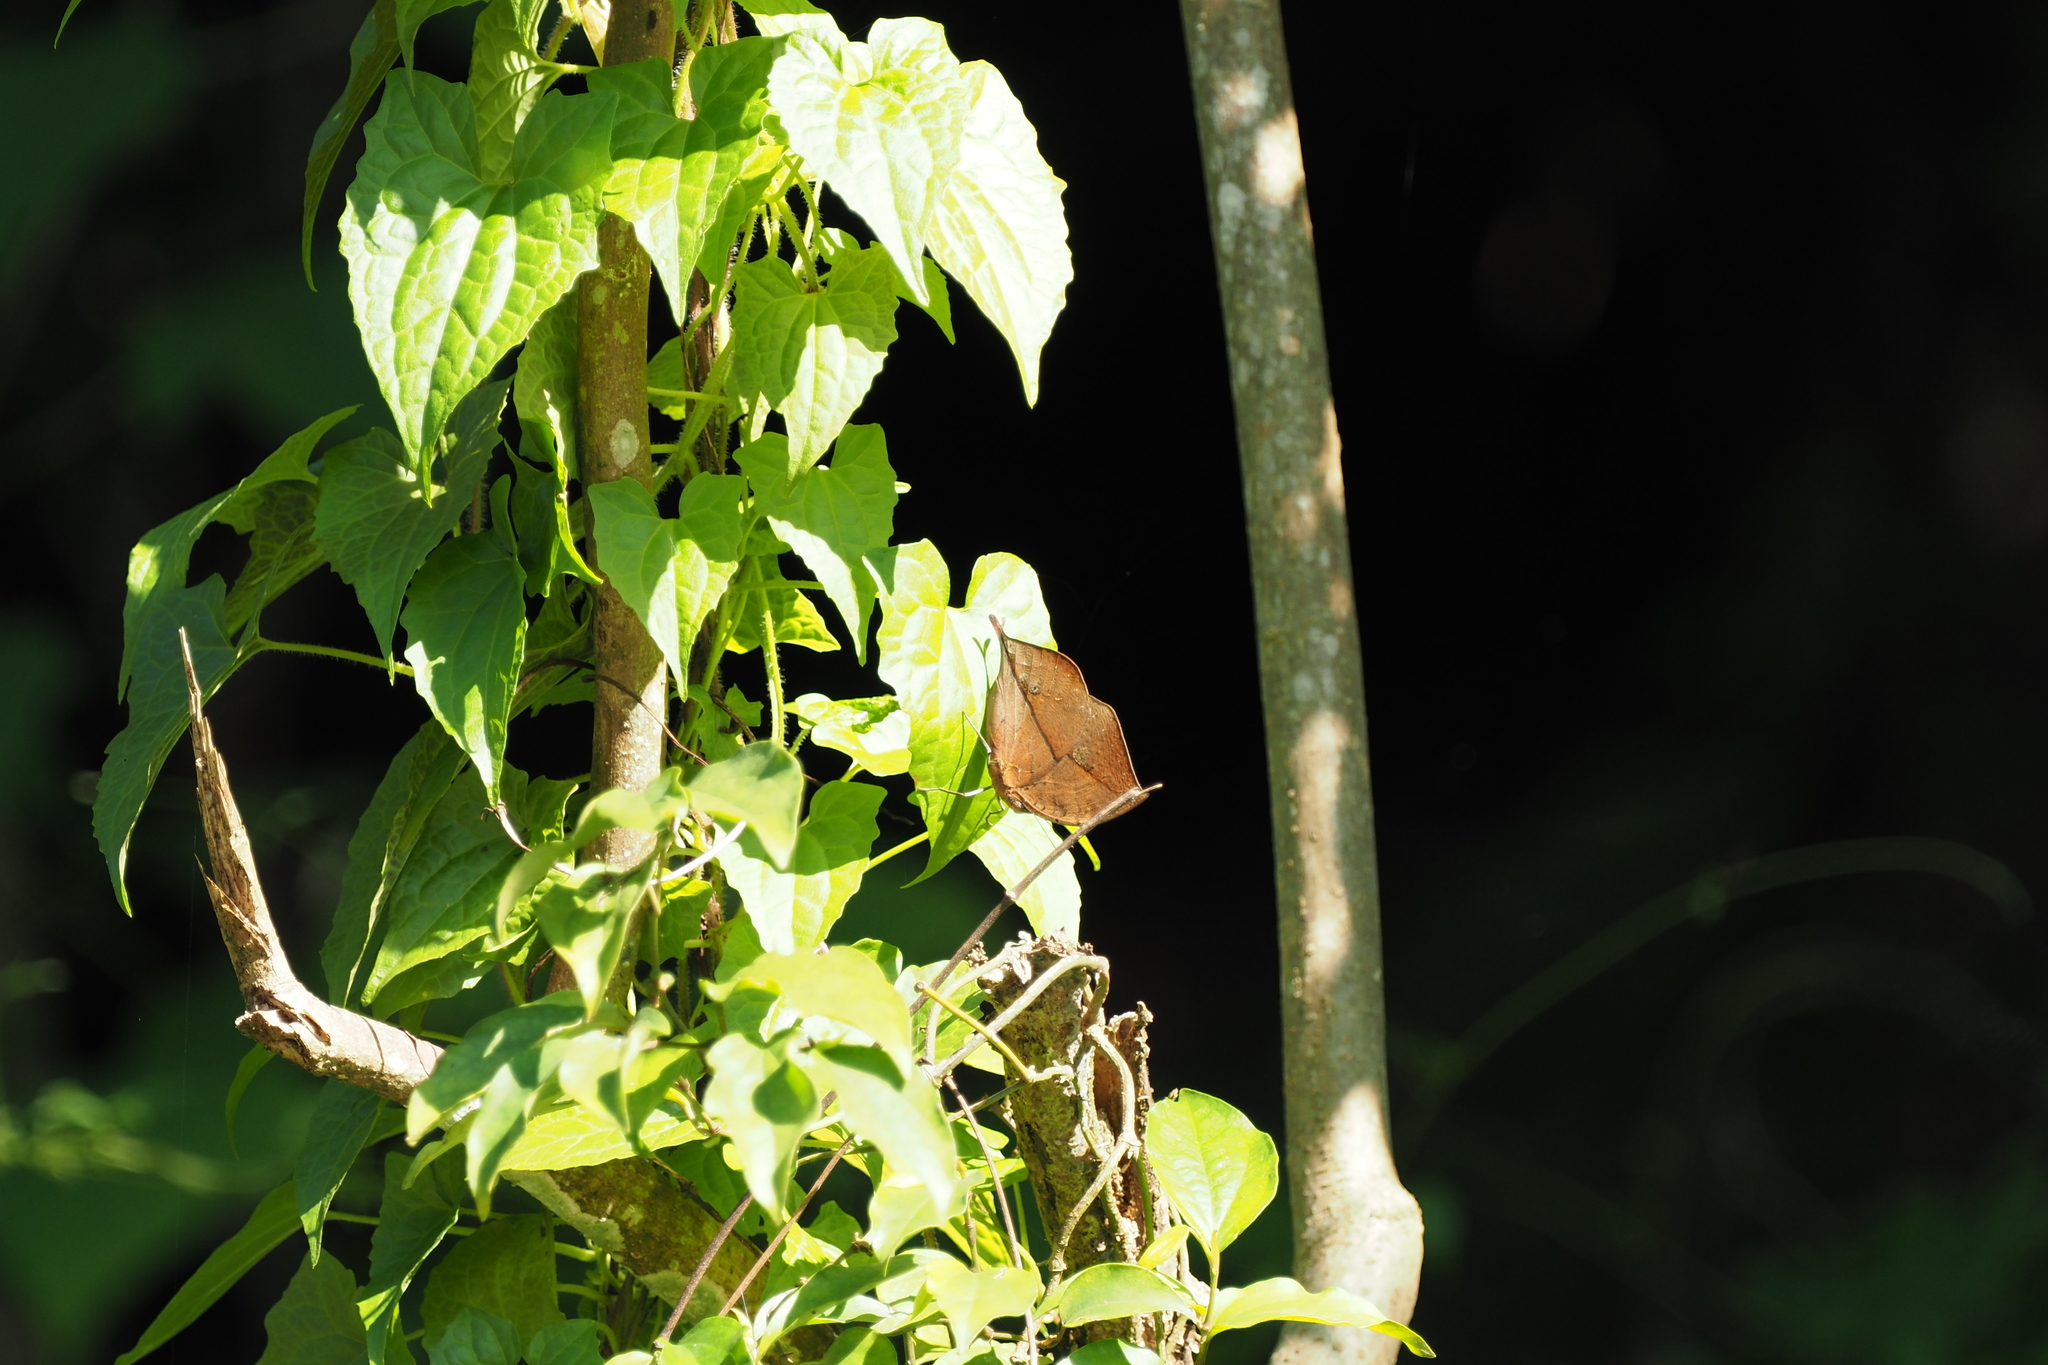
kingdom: Animalia
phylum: Arthropoda
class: Insecta
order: Lepidoptera
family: Nymphalidae
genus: Kallima
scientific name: Kallima inachus
